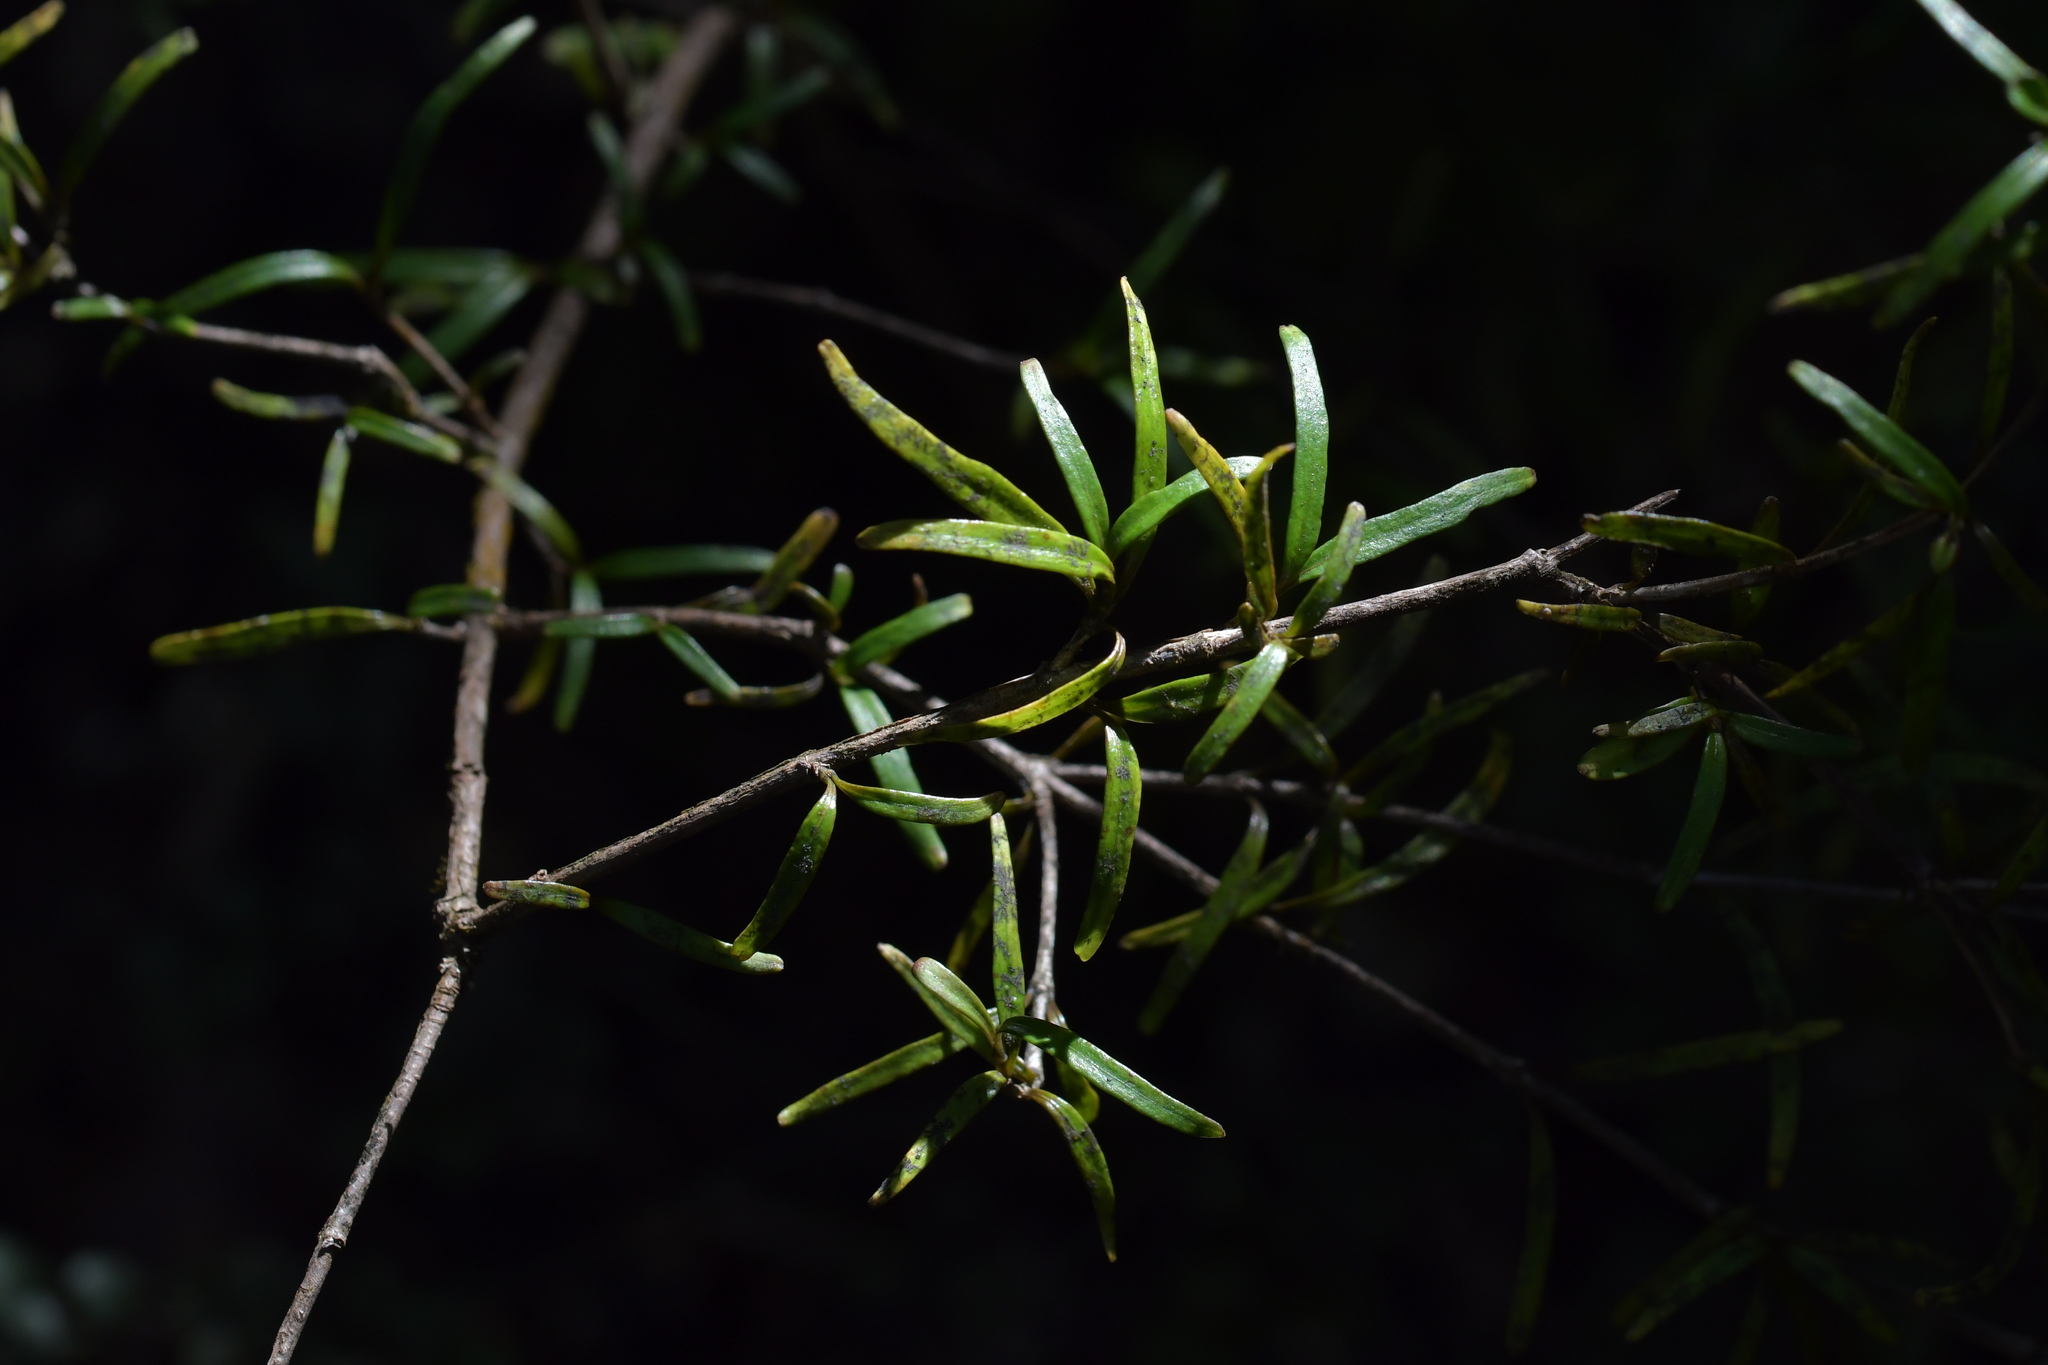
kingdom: Plantae
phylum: Tracheophyta
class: Magnoliopsida
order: Gentianales
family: Rubiaceae
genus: Coprosma
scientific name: Coprosma colensoi
